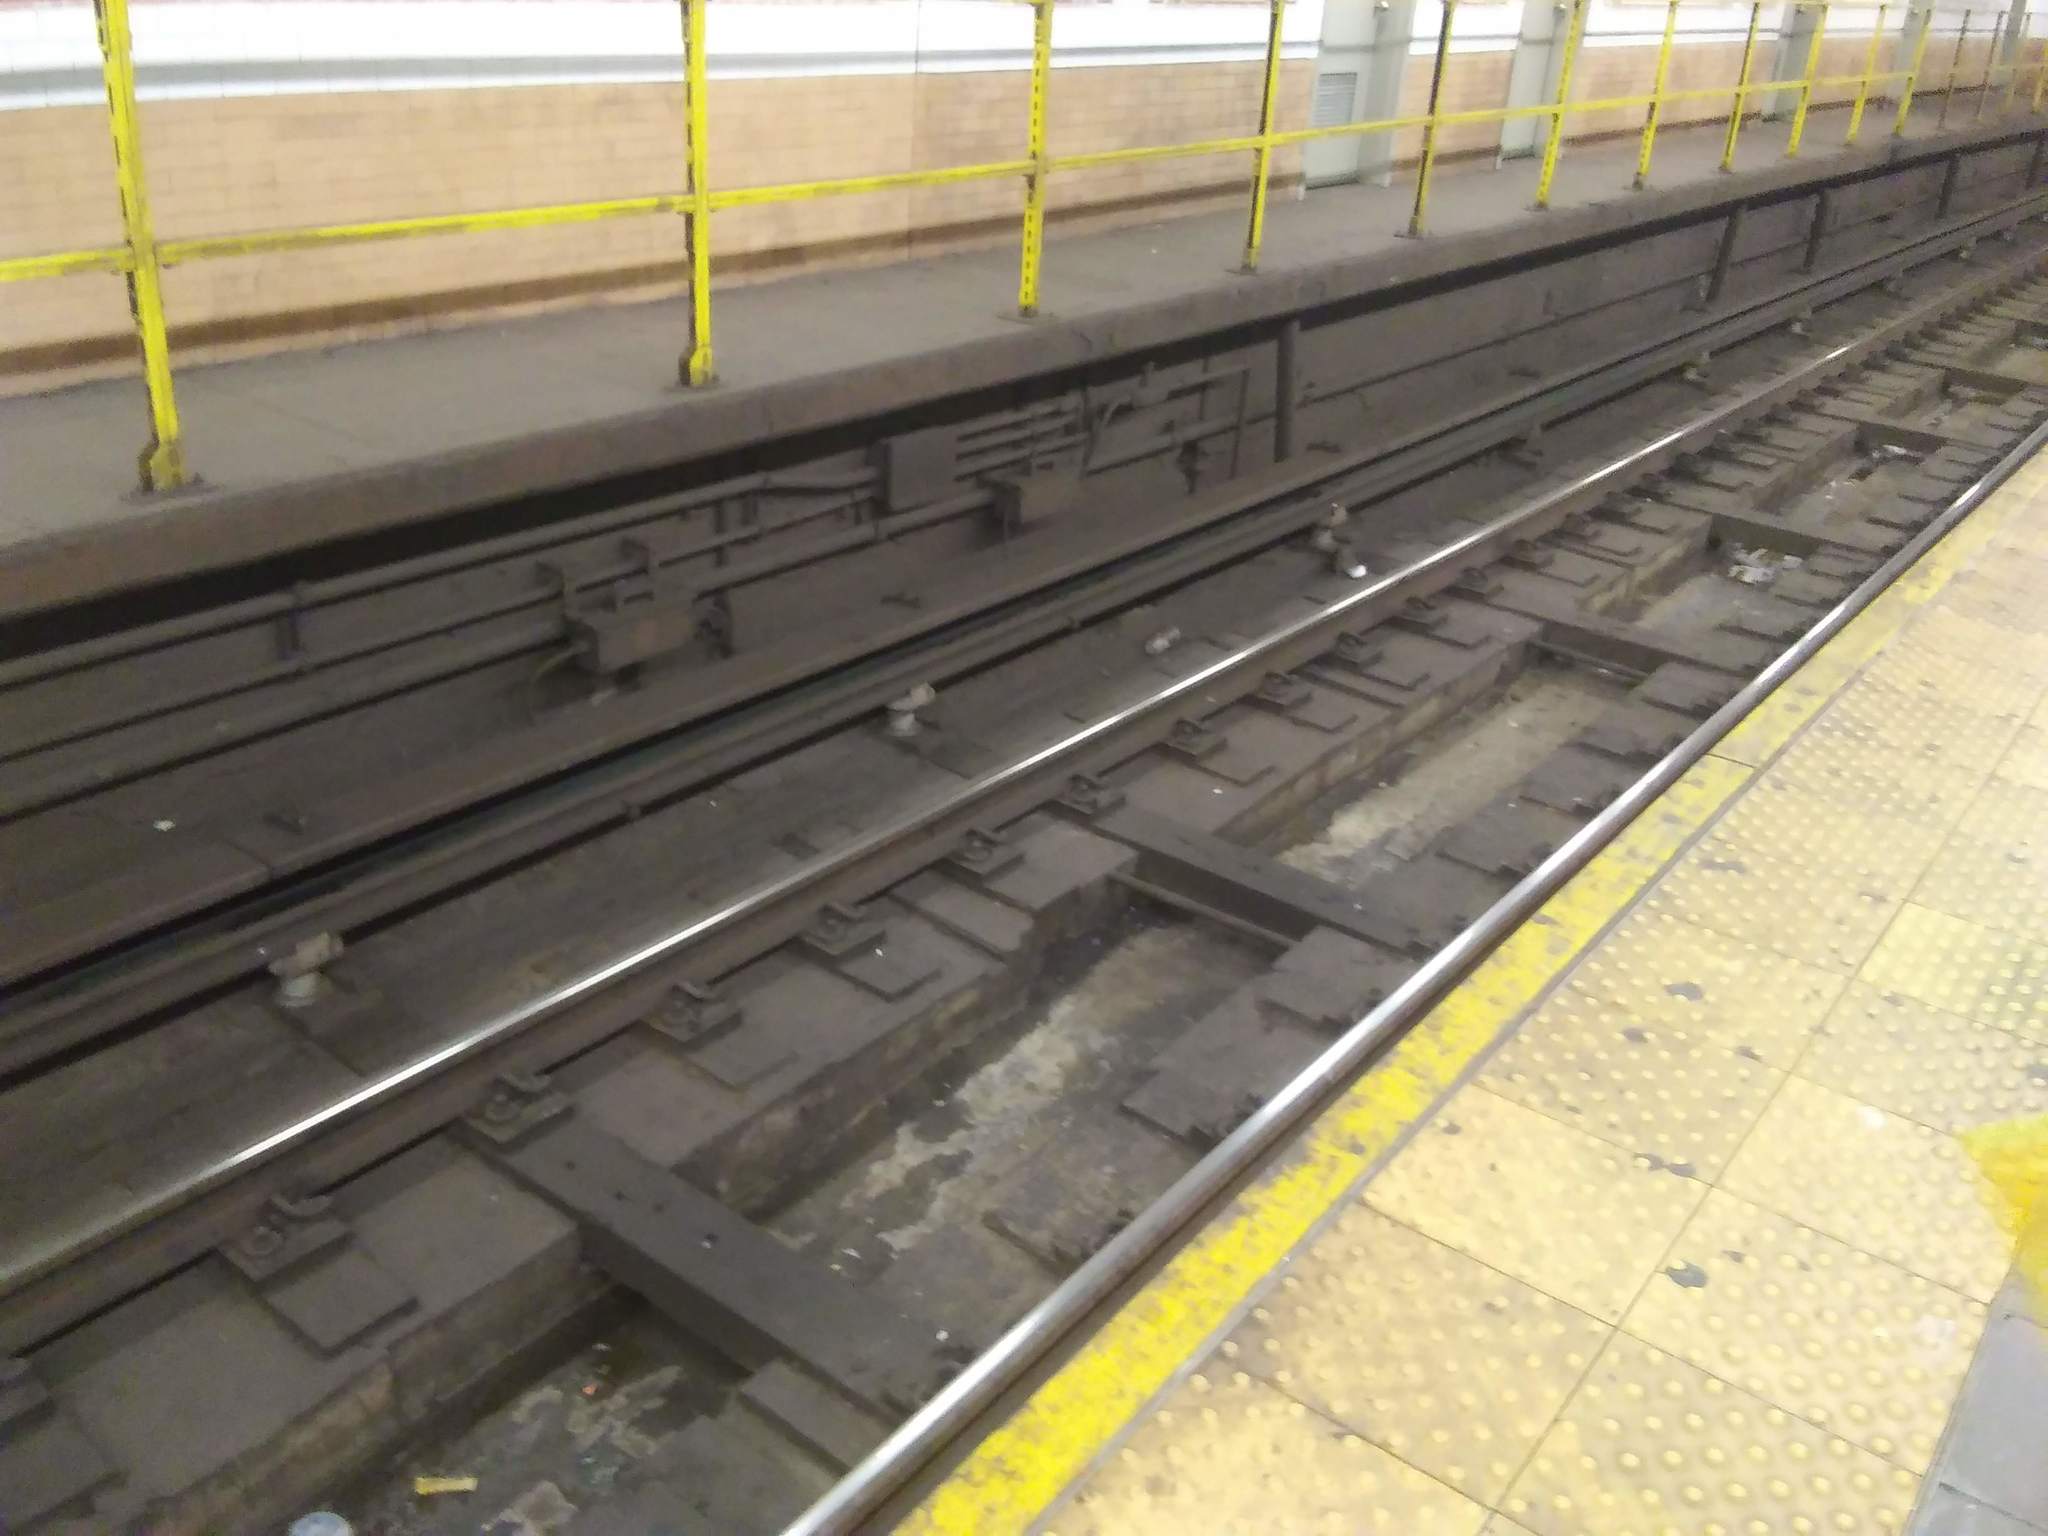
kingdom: Animalia
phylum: Chordata
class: Mammalia
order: Rodentia
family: Muridae
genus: Rattus
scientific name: Rattus norvegicus
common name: Brown rat
